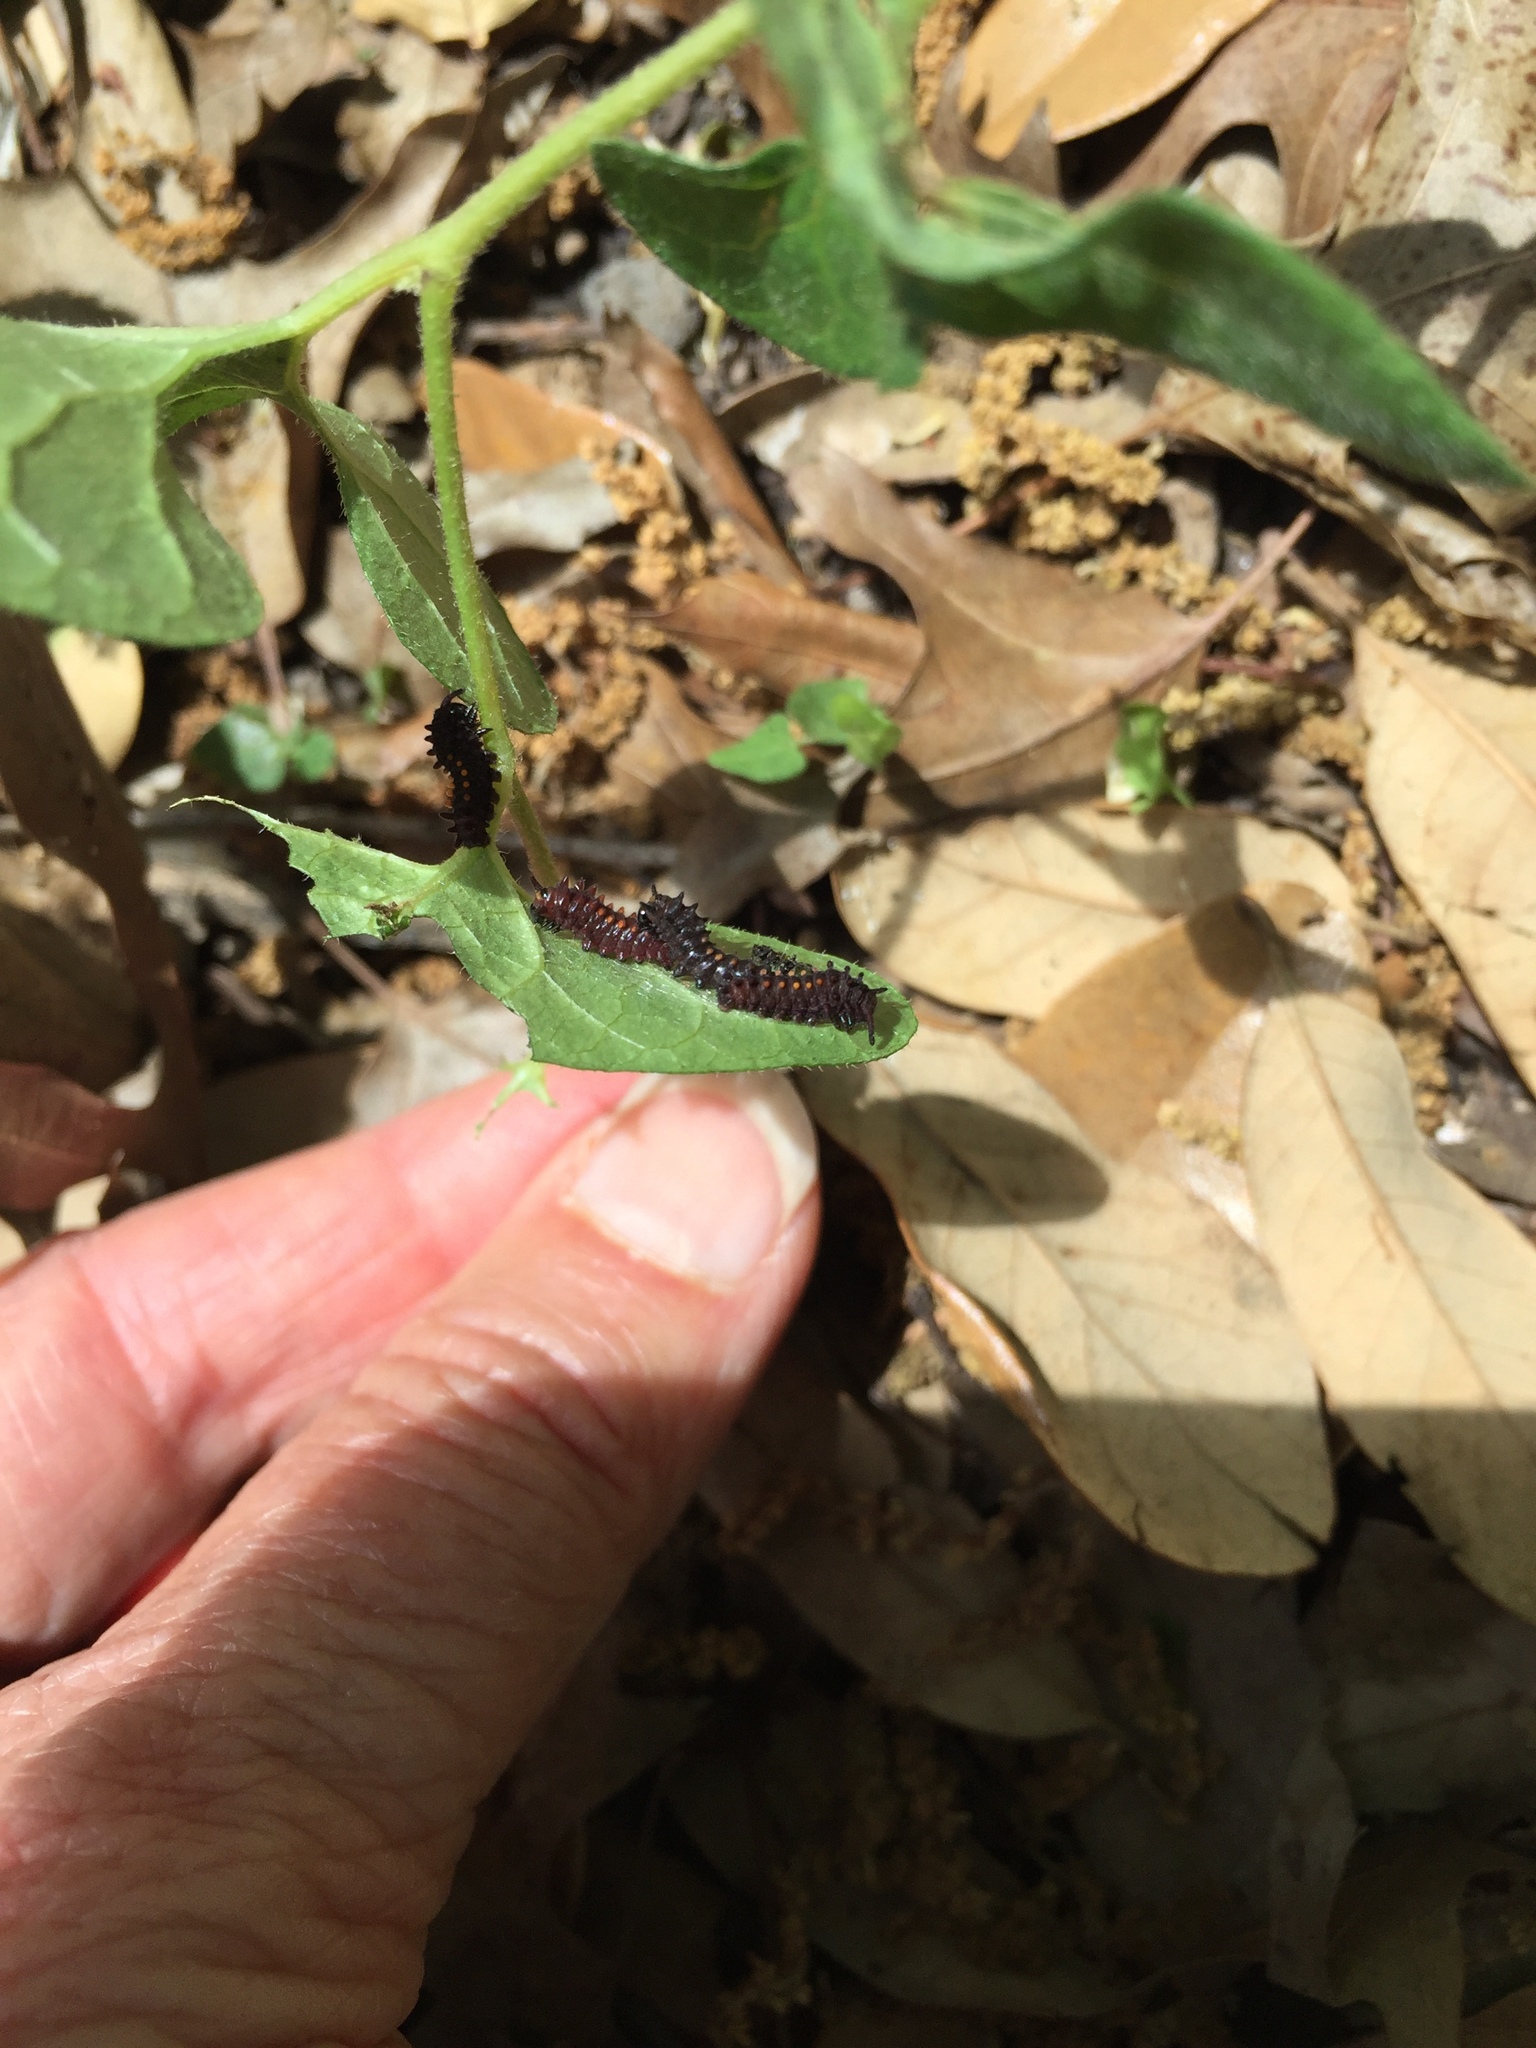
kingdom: Plantae
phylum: Tracheophyta
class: Magnoliopsida
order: Piperales
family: Aristolochiaceae
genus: Endodeca
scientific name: Endodeca serpentaria
